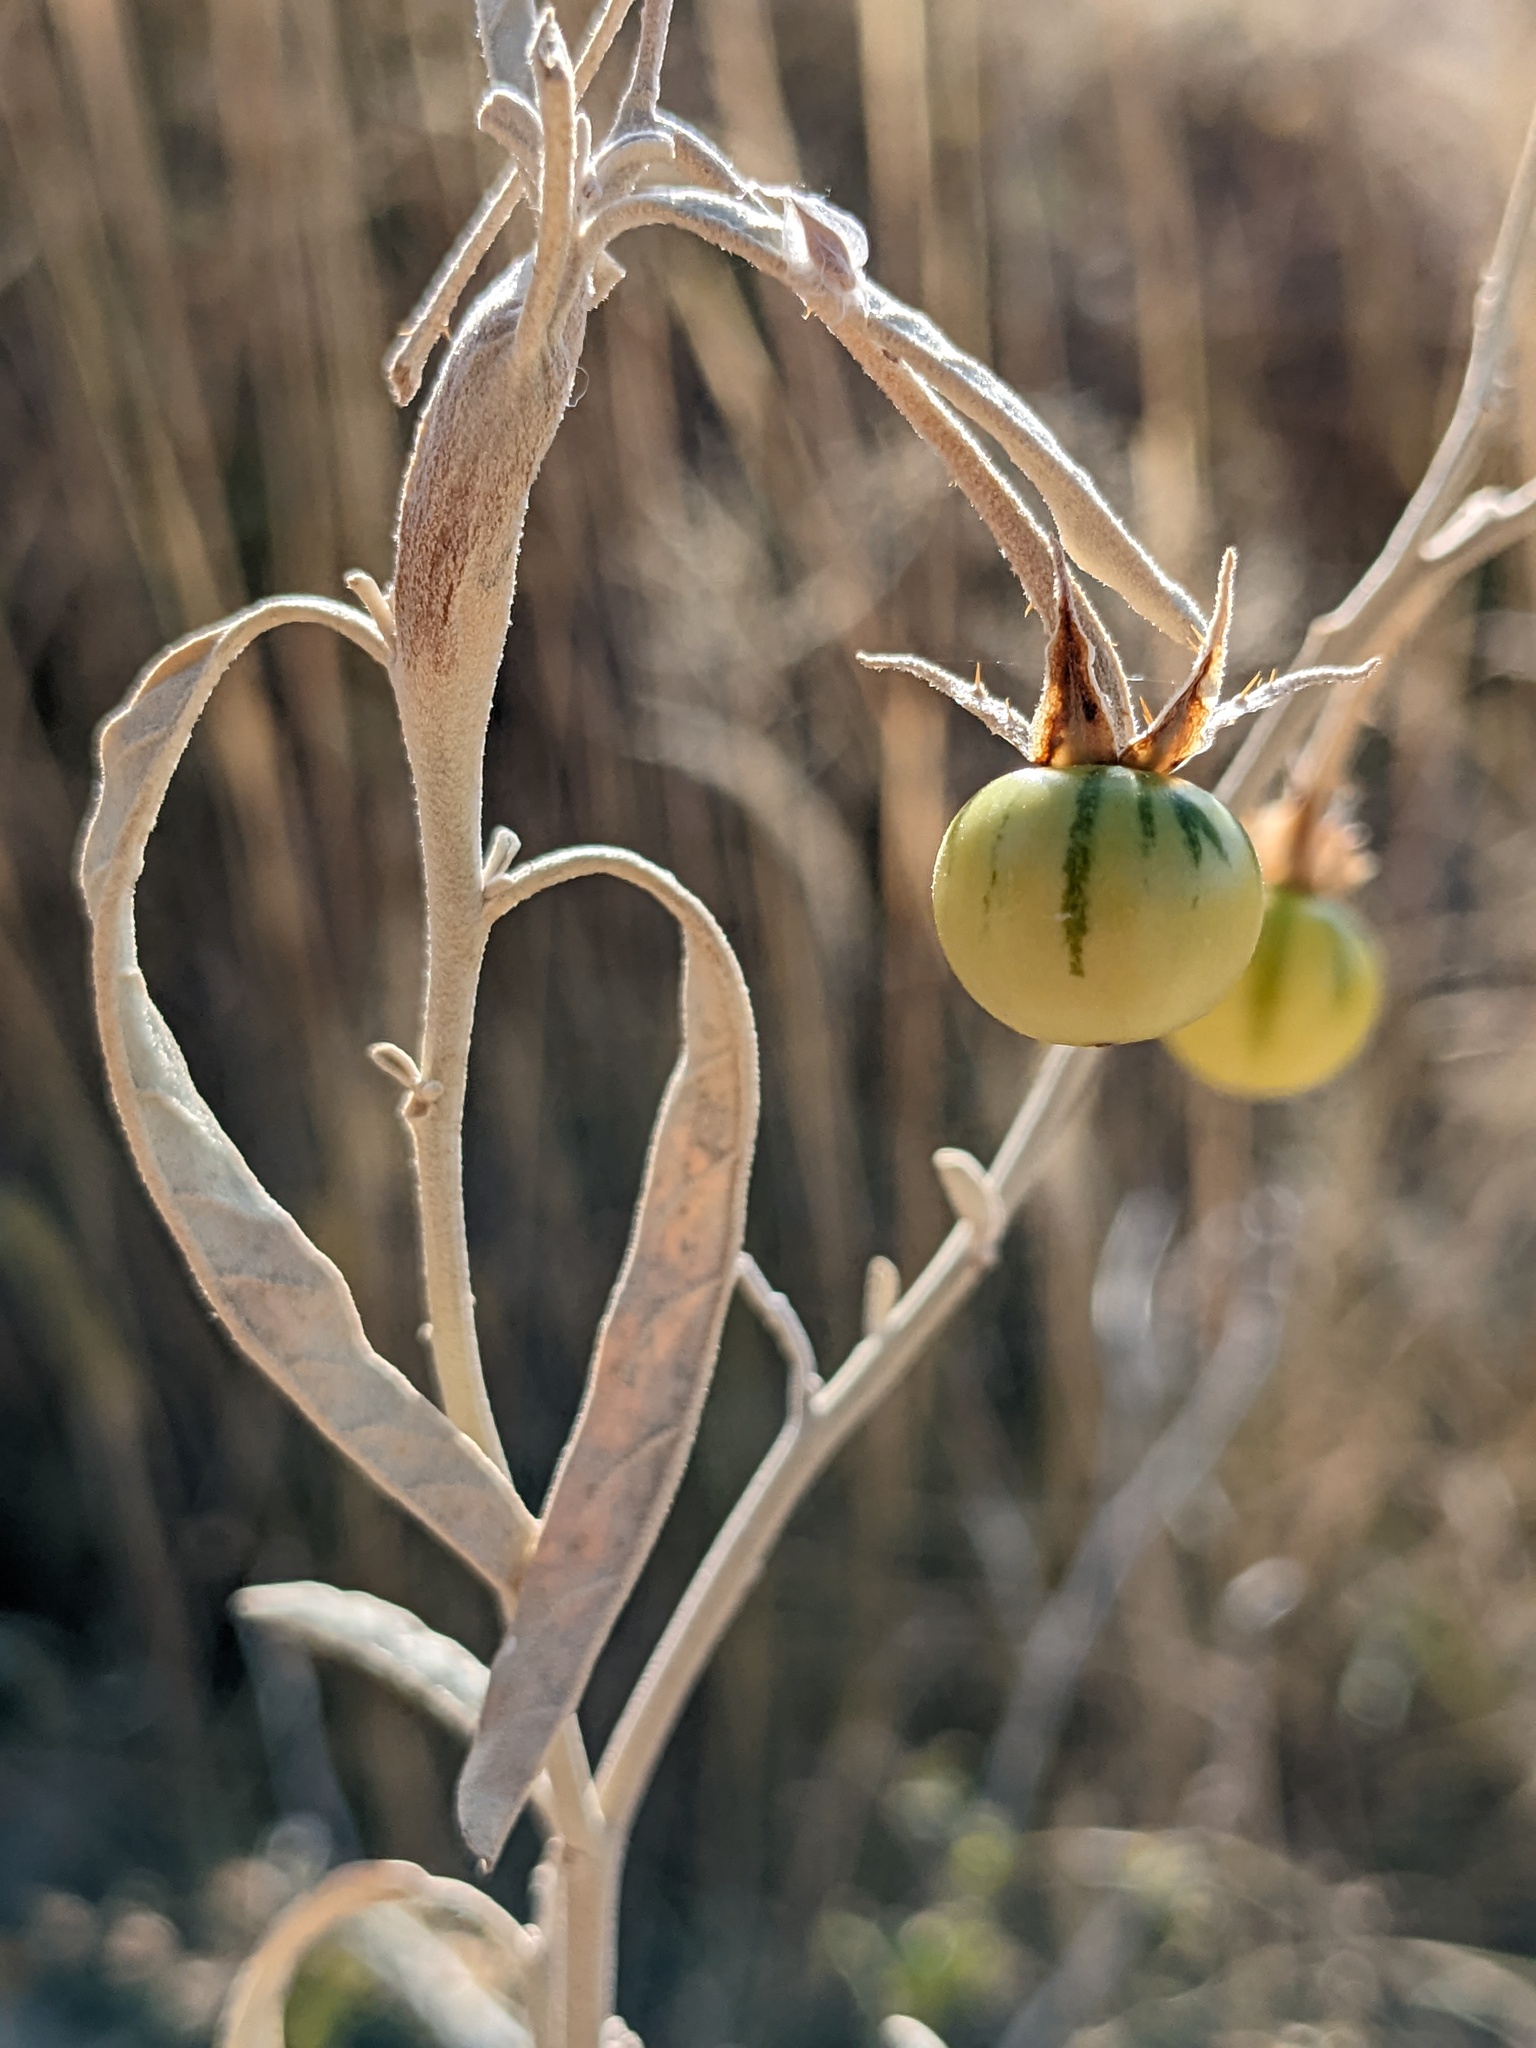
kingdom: Plantae
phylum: Tracheophyta
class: Magnoliopsida
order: Solanales
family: Solanaceae
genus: Solanum
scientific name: Solanum elaeagnifolium
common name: Silverleaf nightshade
